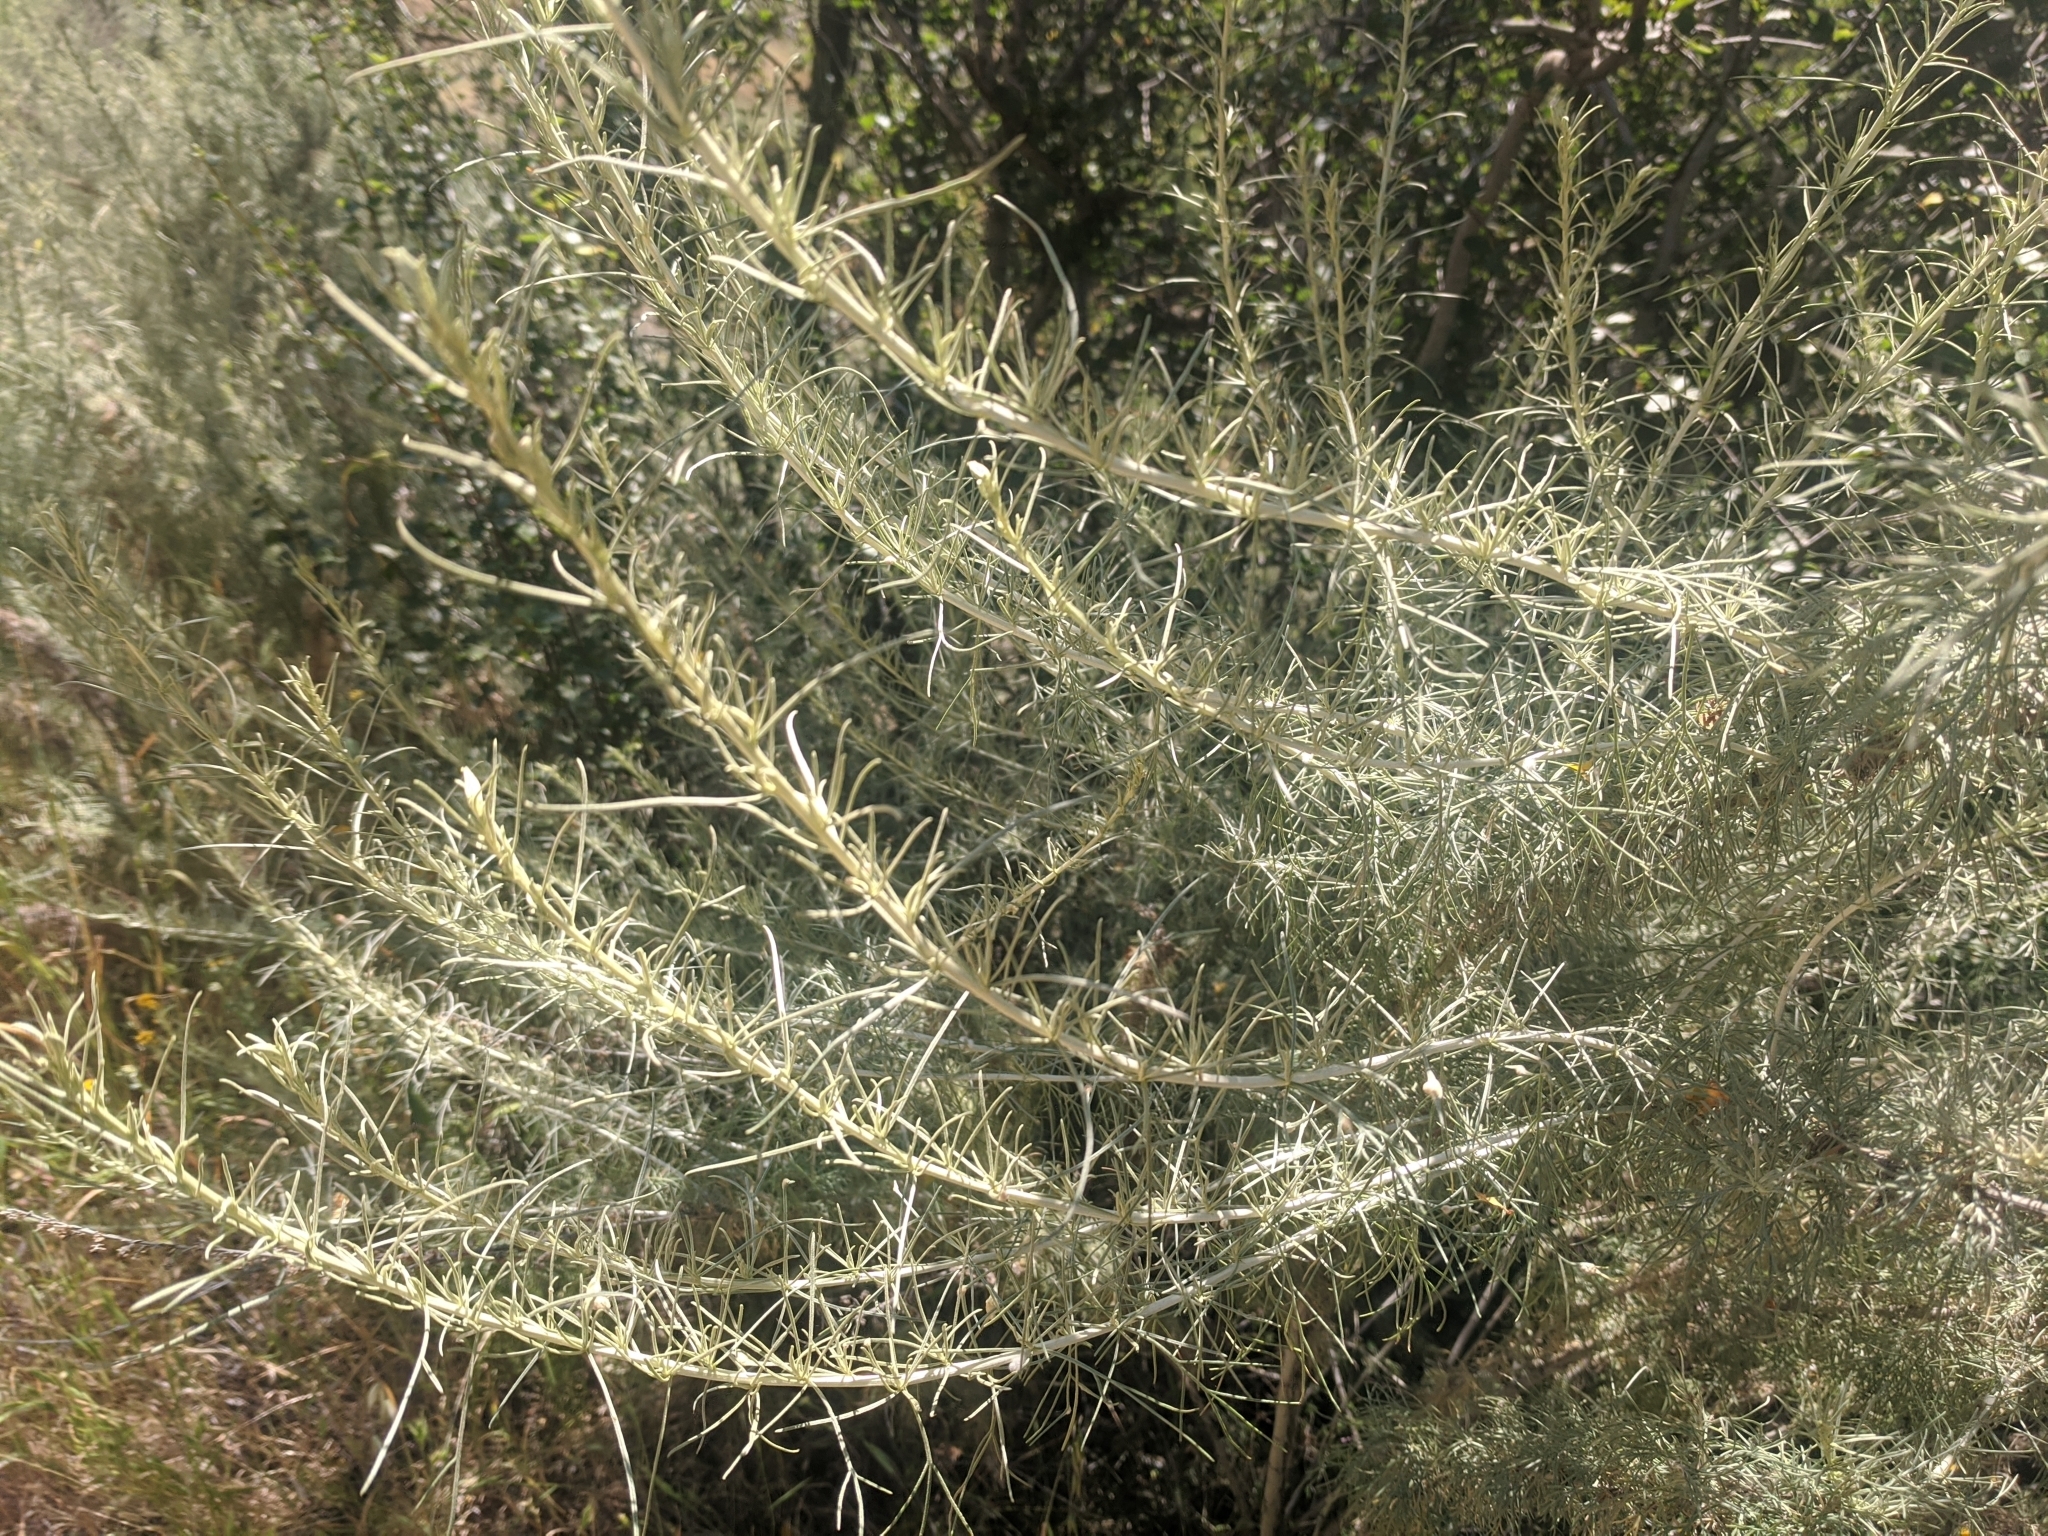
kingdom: Plantae
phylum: Tracheophyta
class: Magnoliopsida
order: Asterales
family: Asteraceae
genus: Artemisia
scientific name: Artemisia californica
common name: California sagebrush
